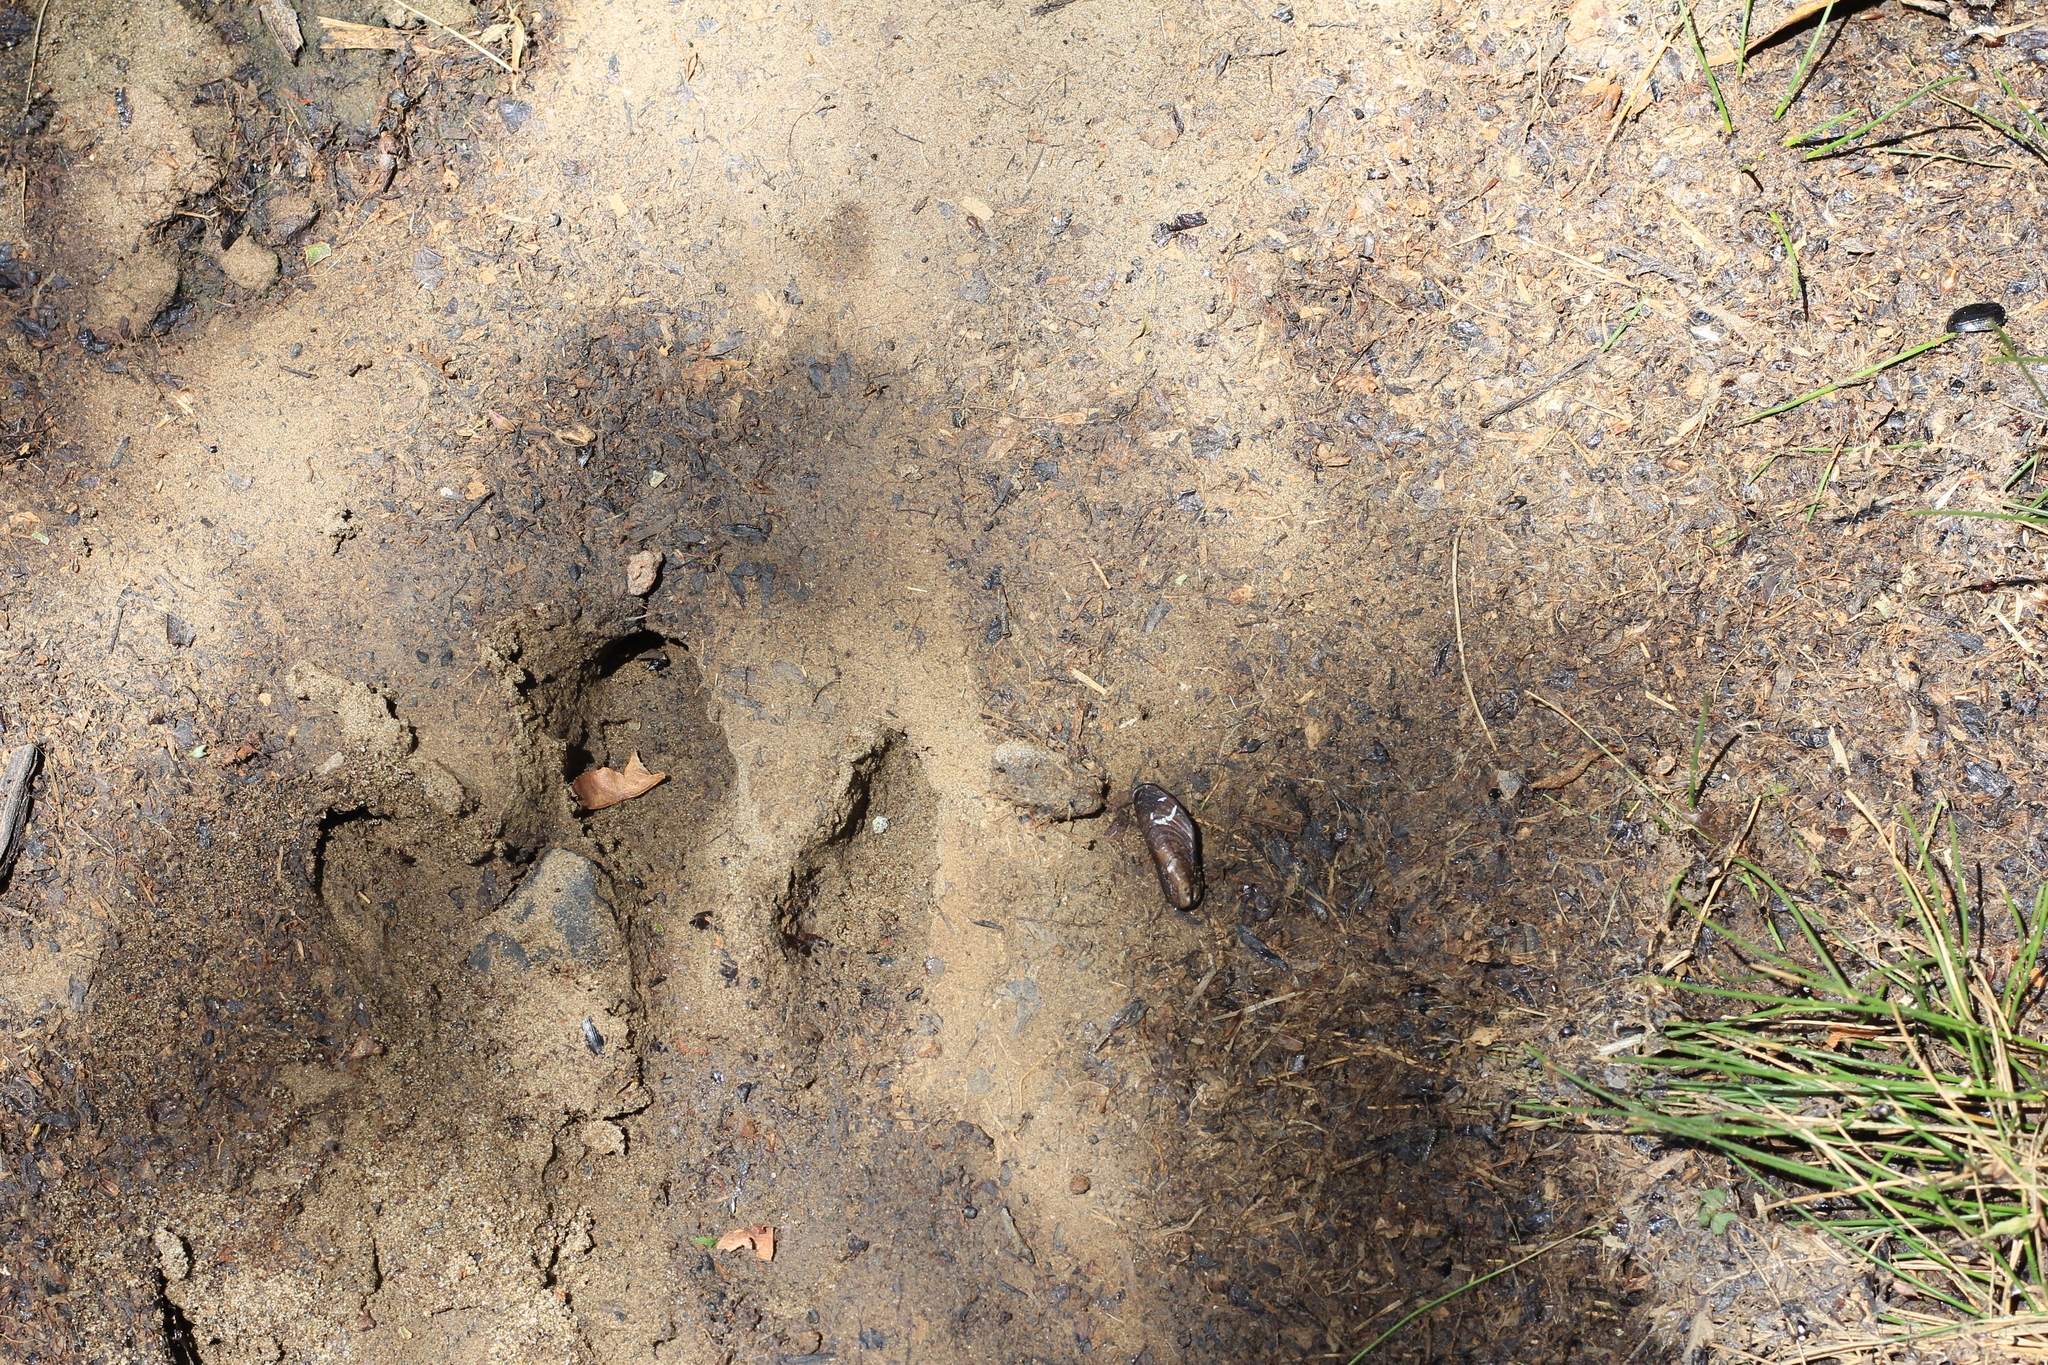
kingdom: Animalia
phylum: Chordata
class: Mammalia
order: Rodentia
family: Caviidae
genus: Hydrochoerus
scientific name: Hydrochoerus hydrochaeris
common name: Capybara
